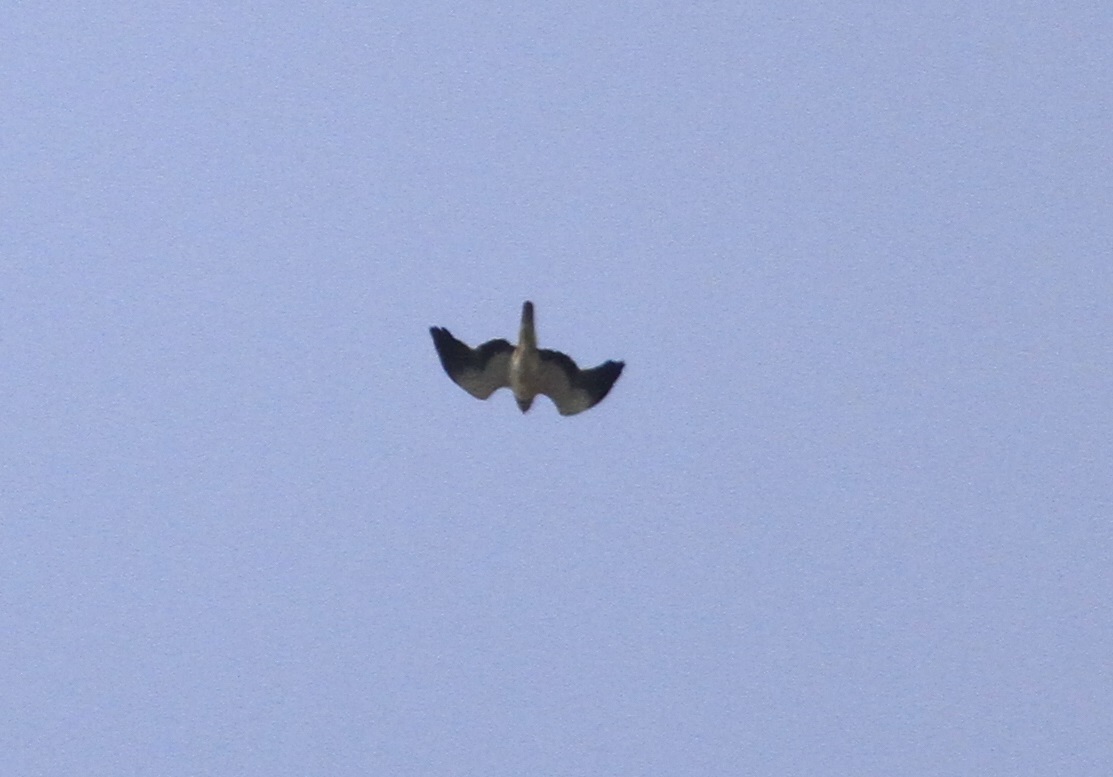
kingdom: Animalia
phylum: Chordata
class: Aves
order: Accipitriformes
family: Accipitridae
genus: Hieraaetus
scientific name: Hieraaetus pennatus
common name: Booted eagle
